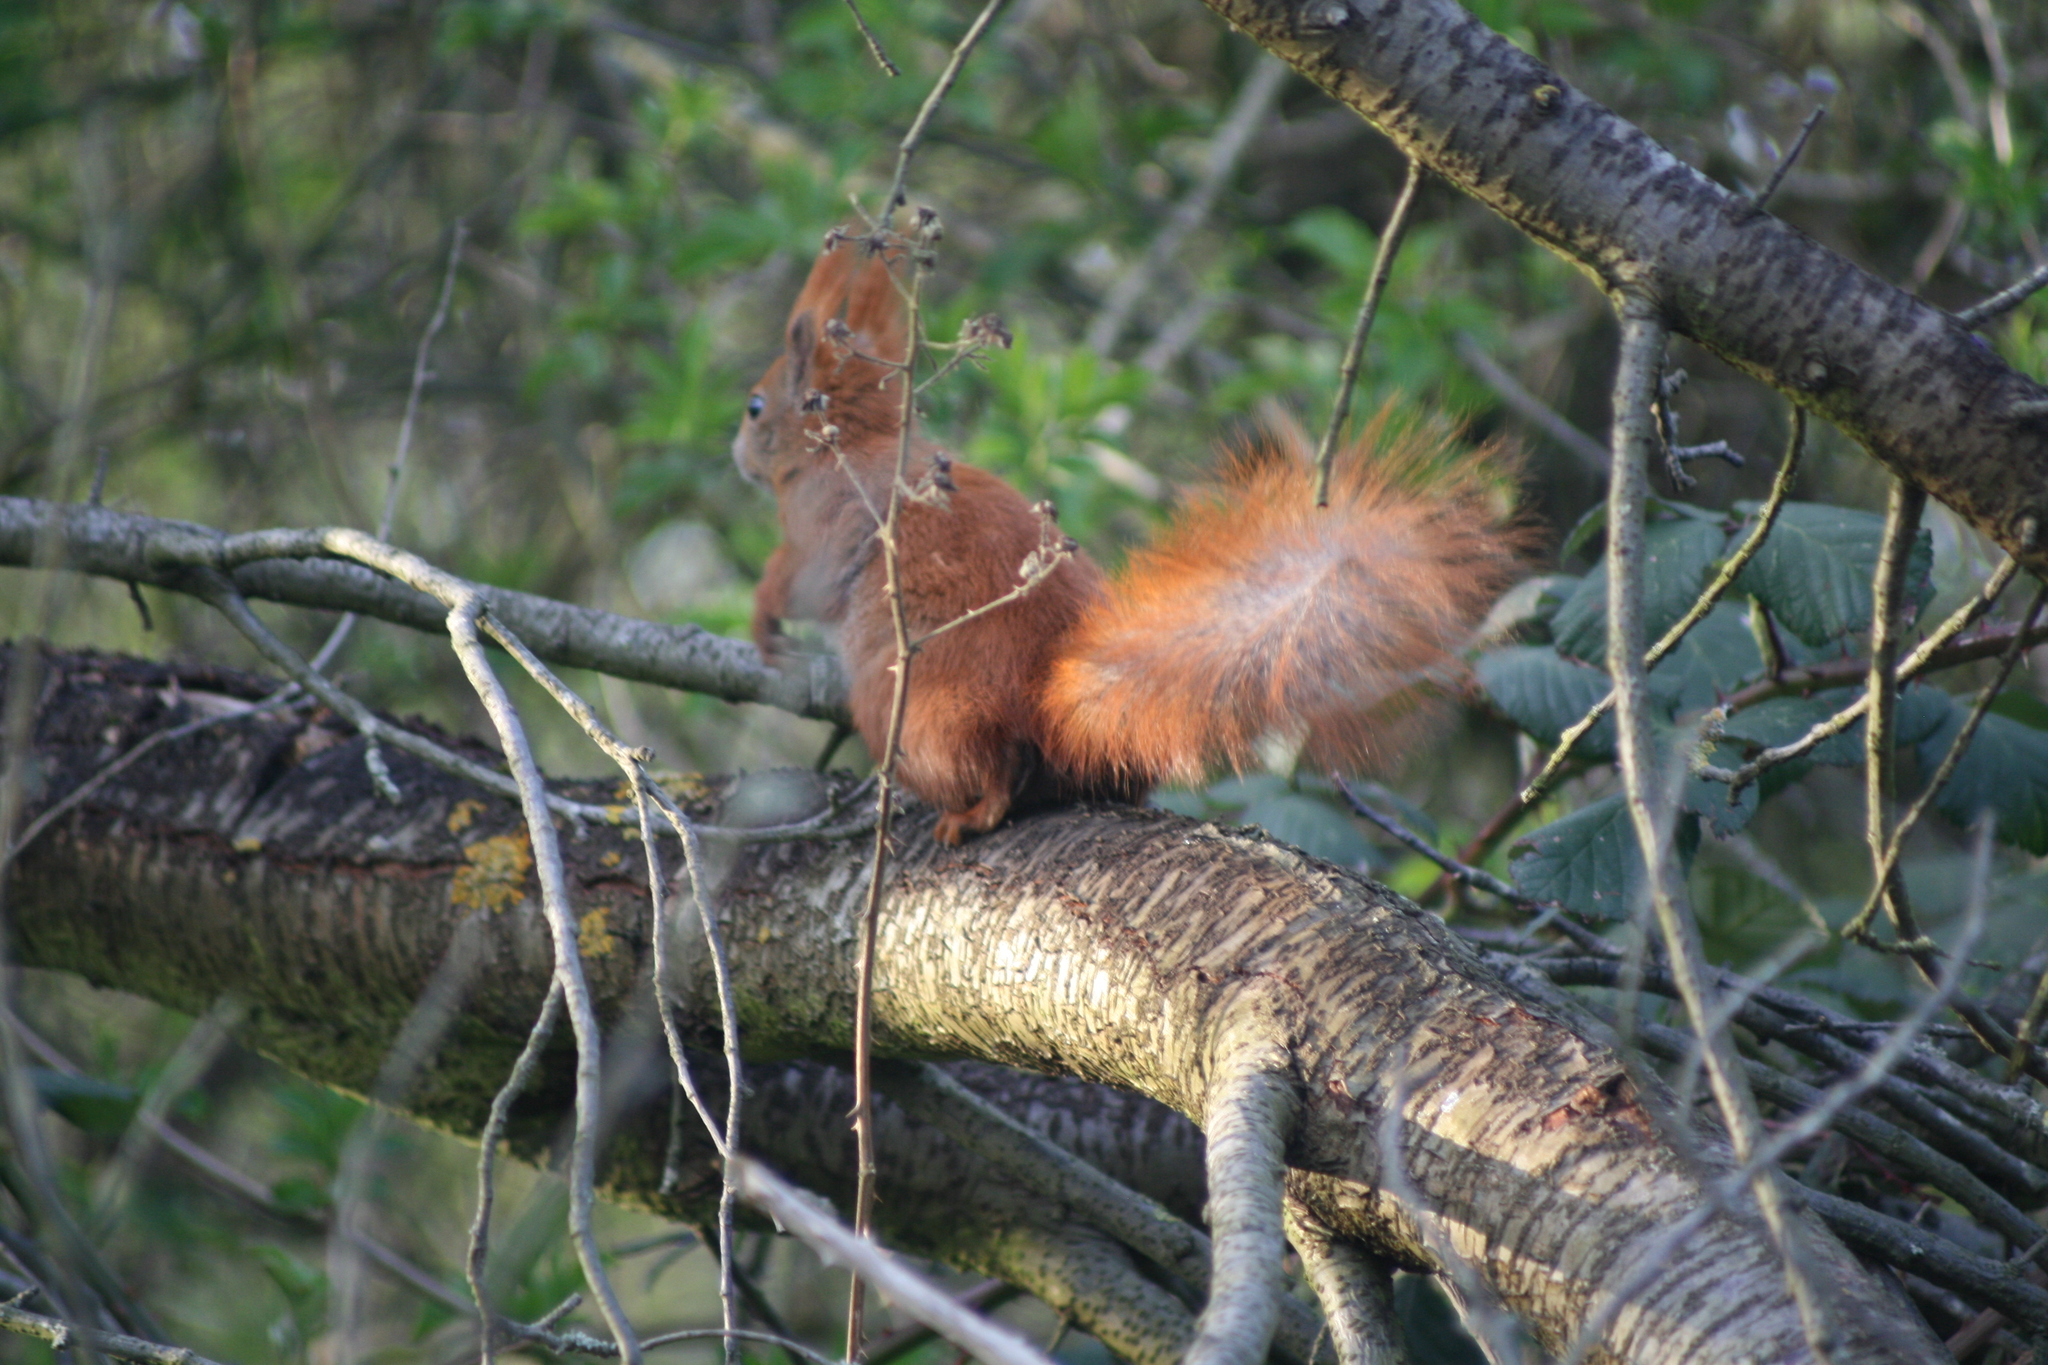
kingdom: Animalia
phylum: Chordata
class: Mammalia
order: Rodentia
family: Sciuridae
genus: Sciurus
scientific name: Sciurus vulgaris
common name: Eurasian red squirrel
